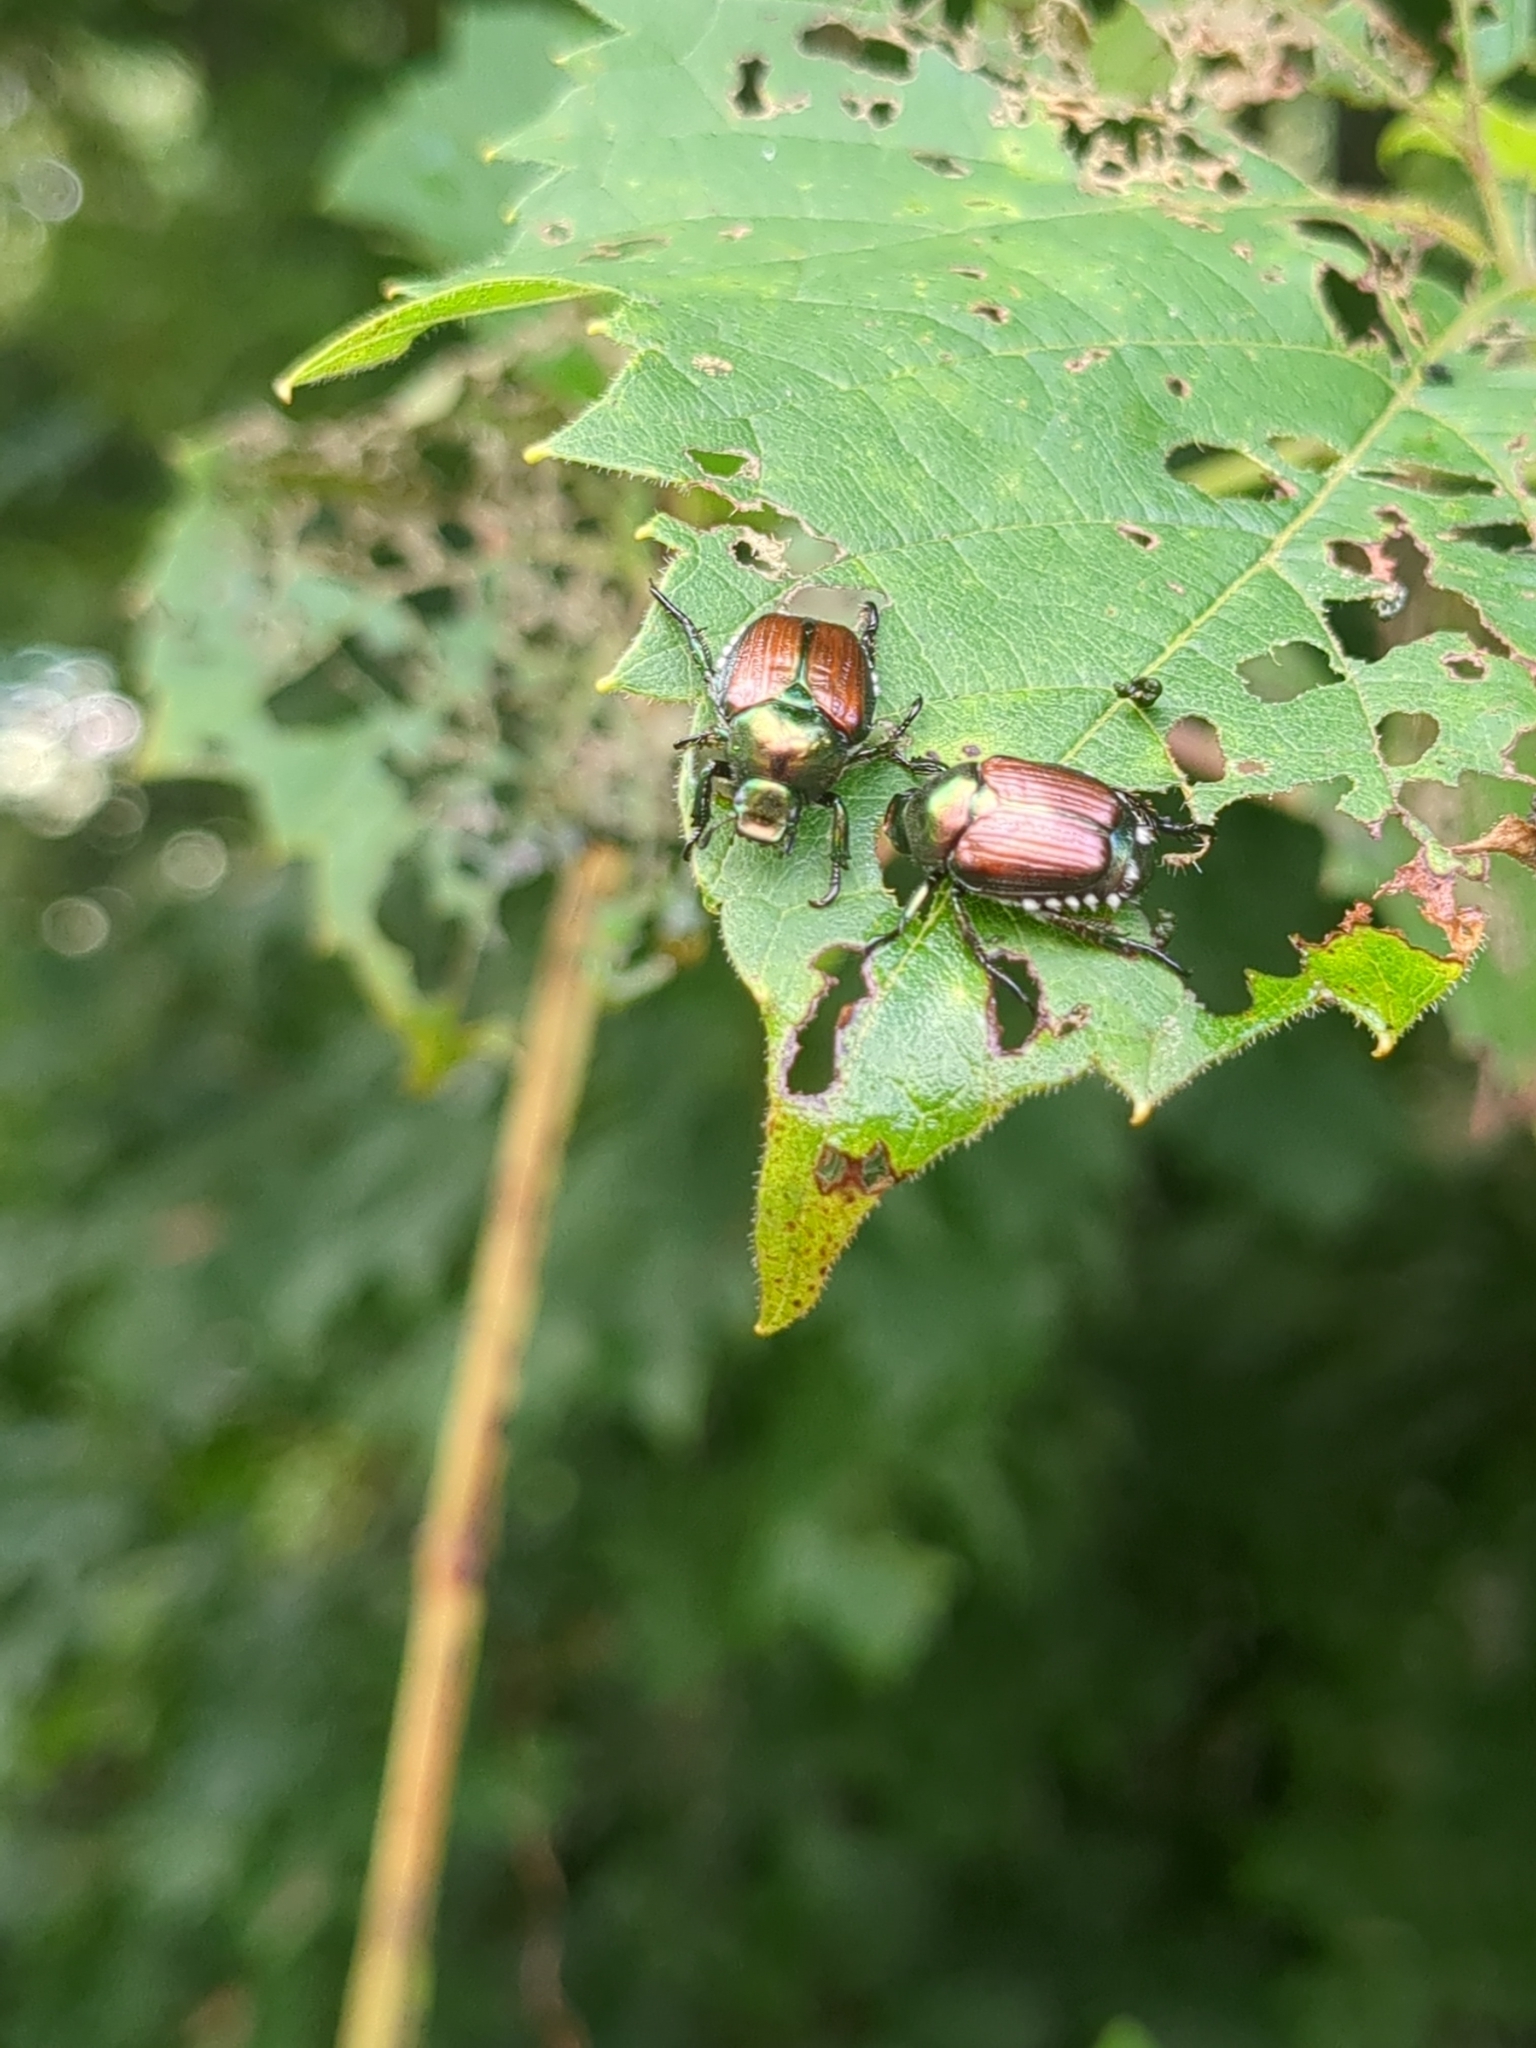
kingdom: Animalia
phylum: Arthropoda
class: Insecta
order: Coleoptera
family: Scarabaeidae
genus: Popillia
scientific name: Popillia japonica
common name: Japanese beetle
